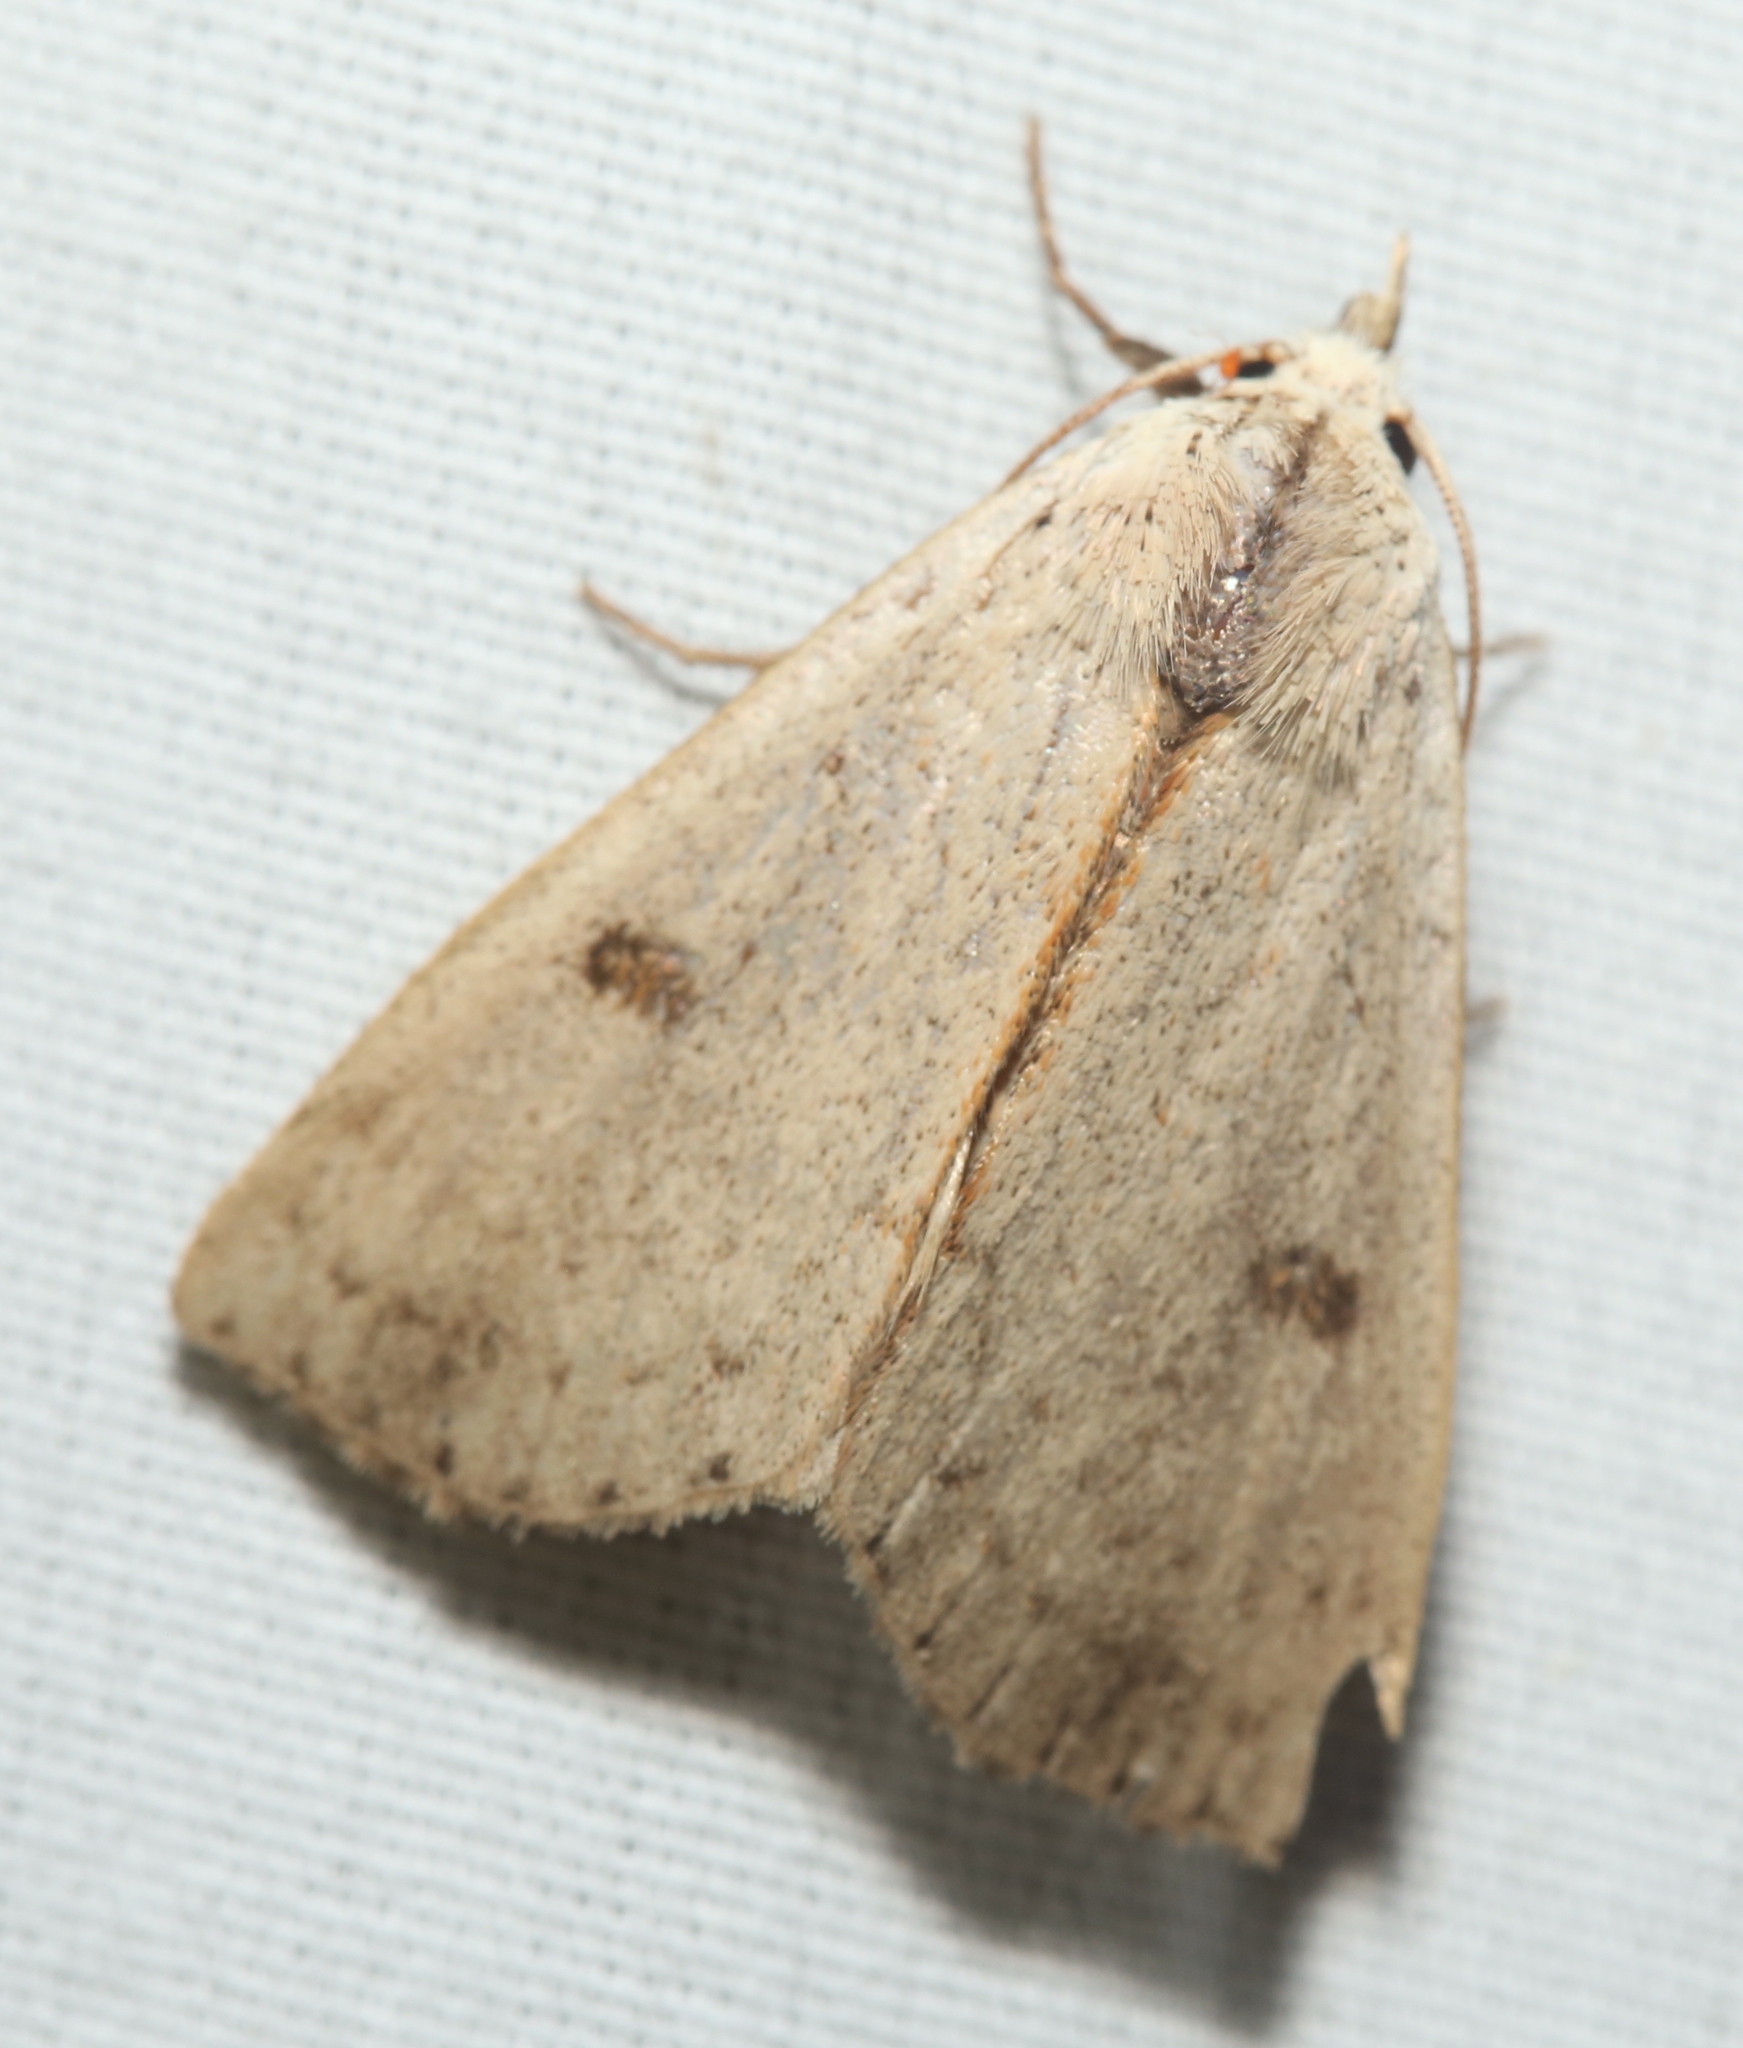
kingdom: Animalia
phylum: Arthropoda
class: Insecta
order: Lepidoptera
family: Erebidae
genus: Scolecocampa
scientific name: Scolecocampa liburna
